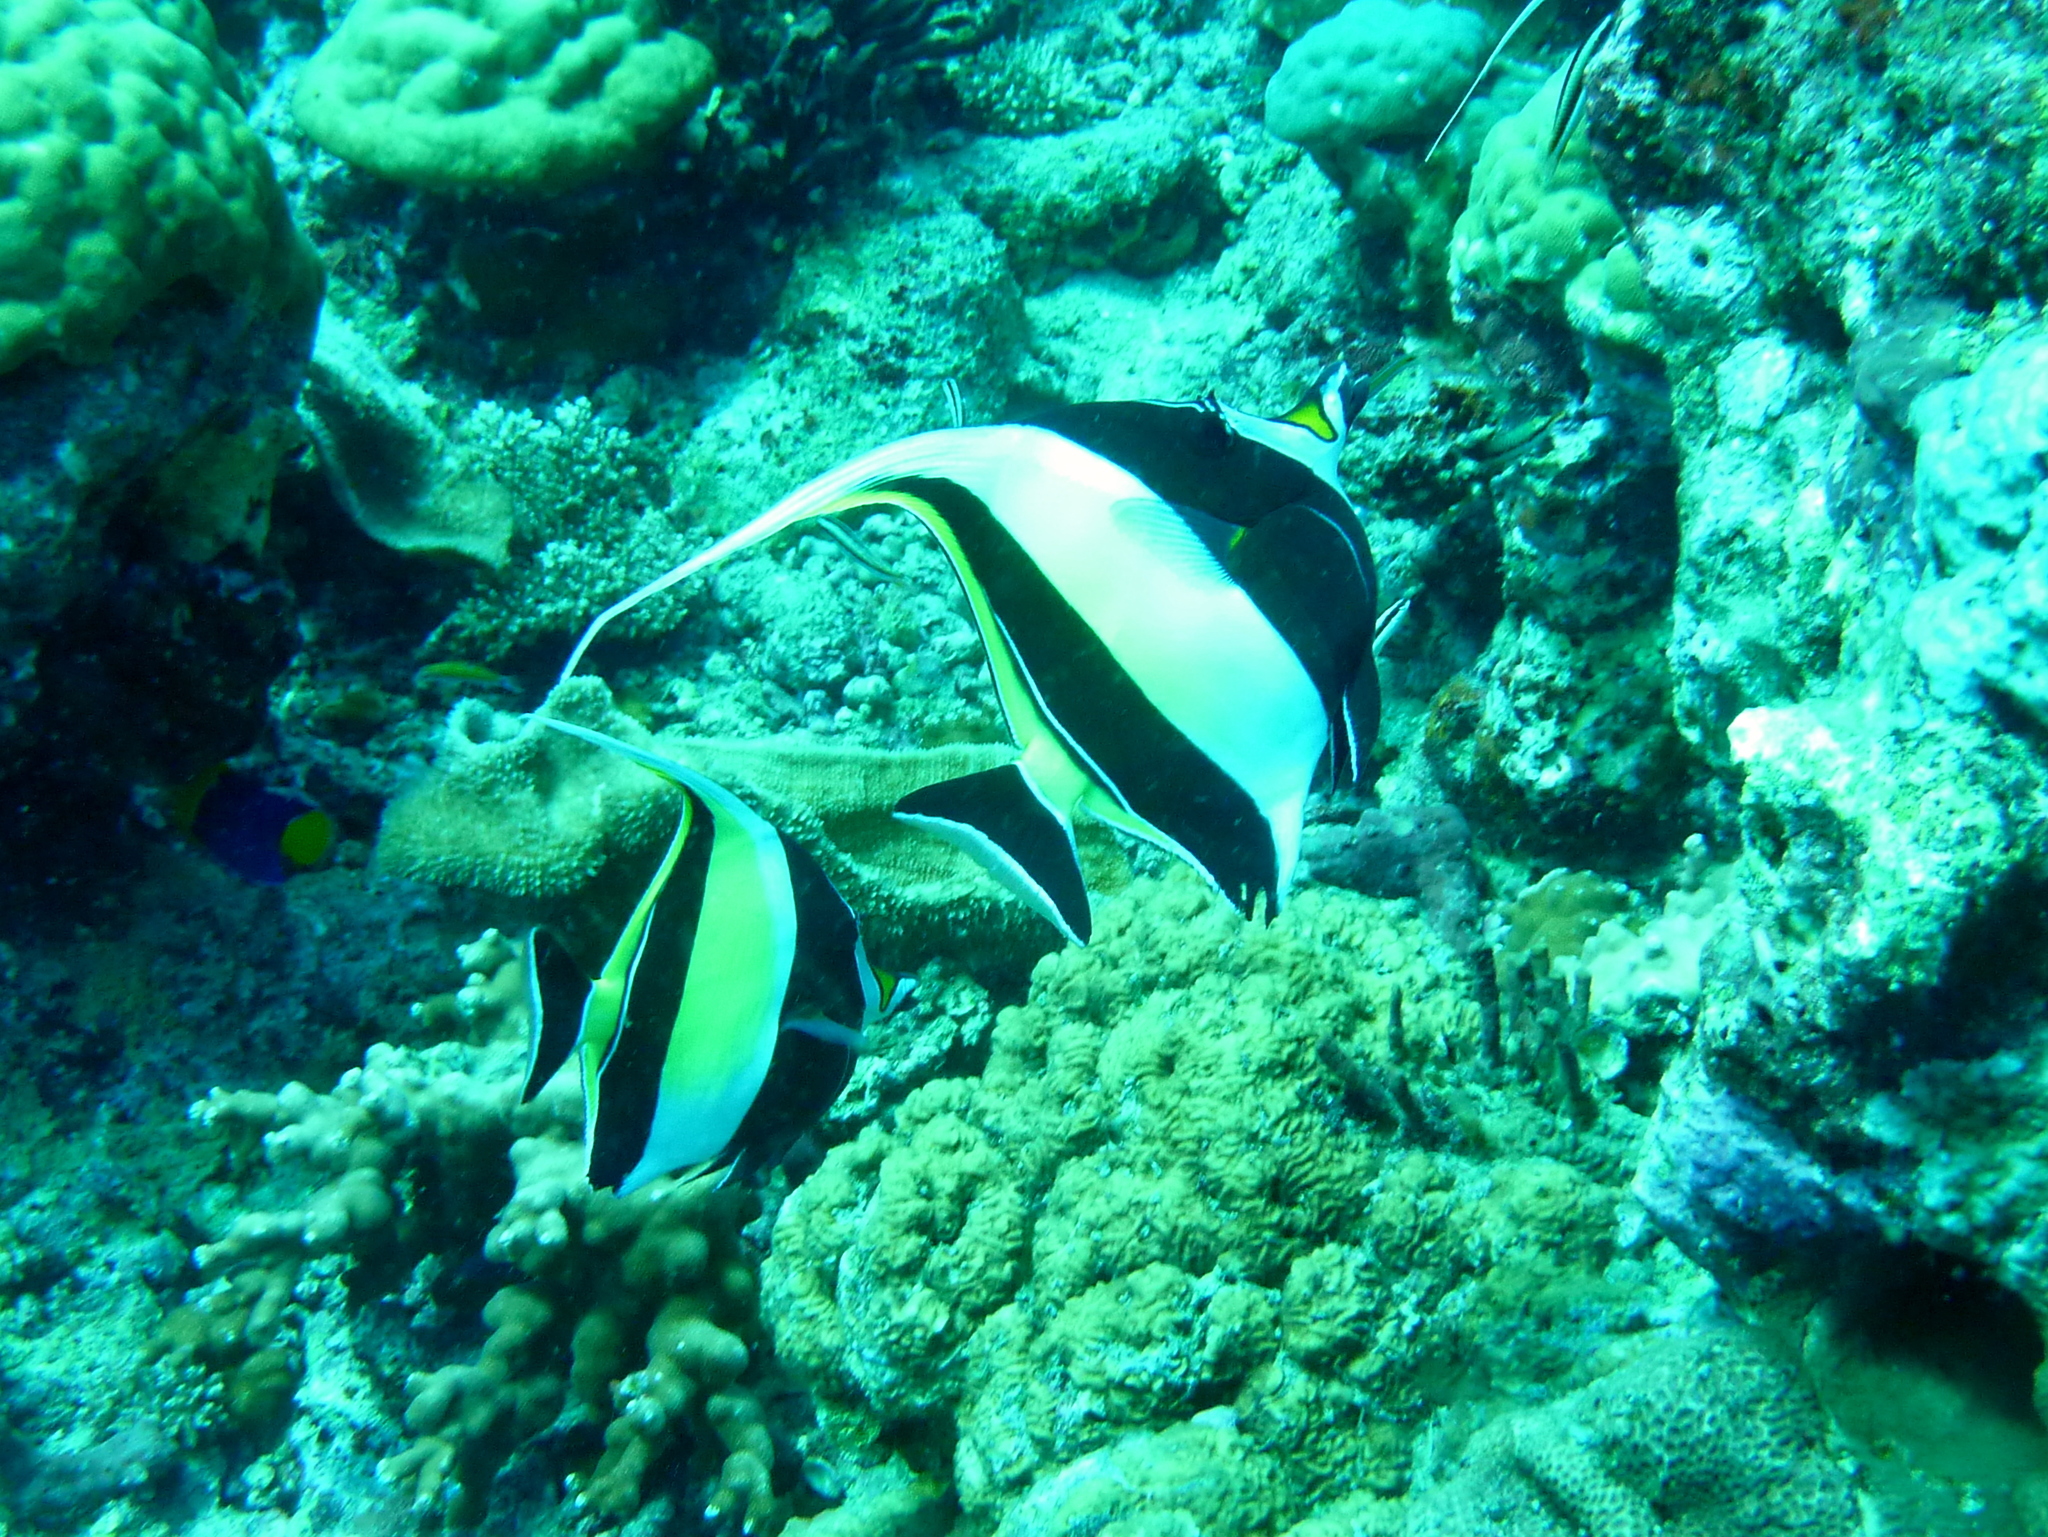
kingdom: Animalia
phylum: Chordata
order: Perciformes
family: Zanclidae
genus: Zanclus
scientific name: Zanclus cornutus
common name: Moorish idol
